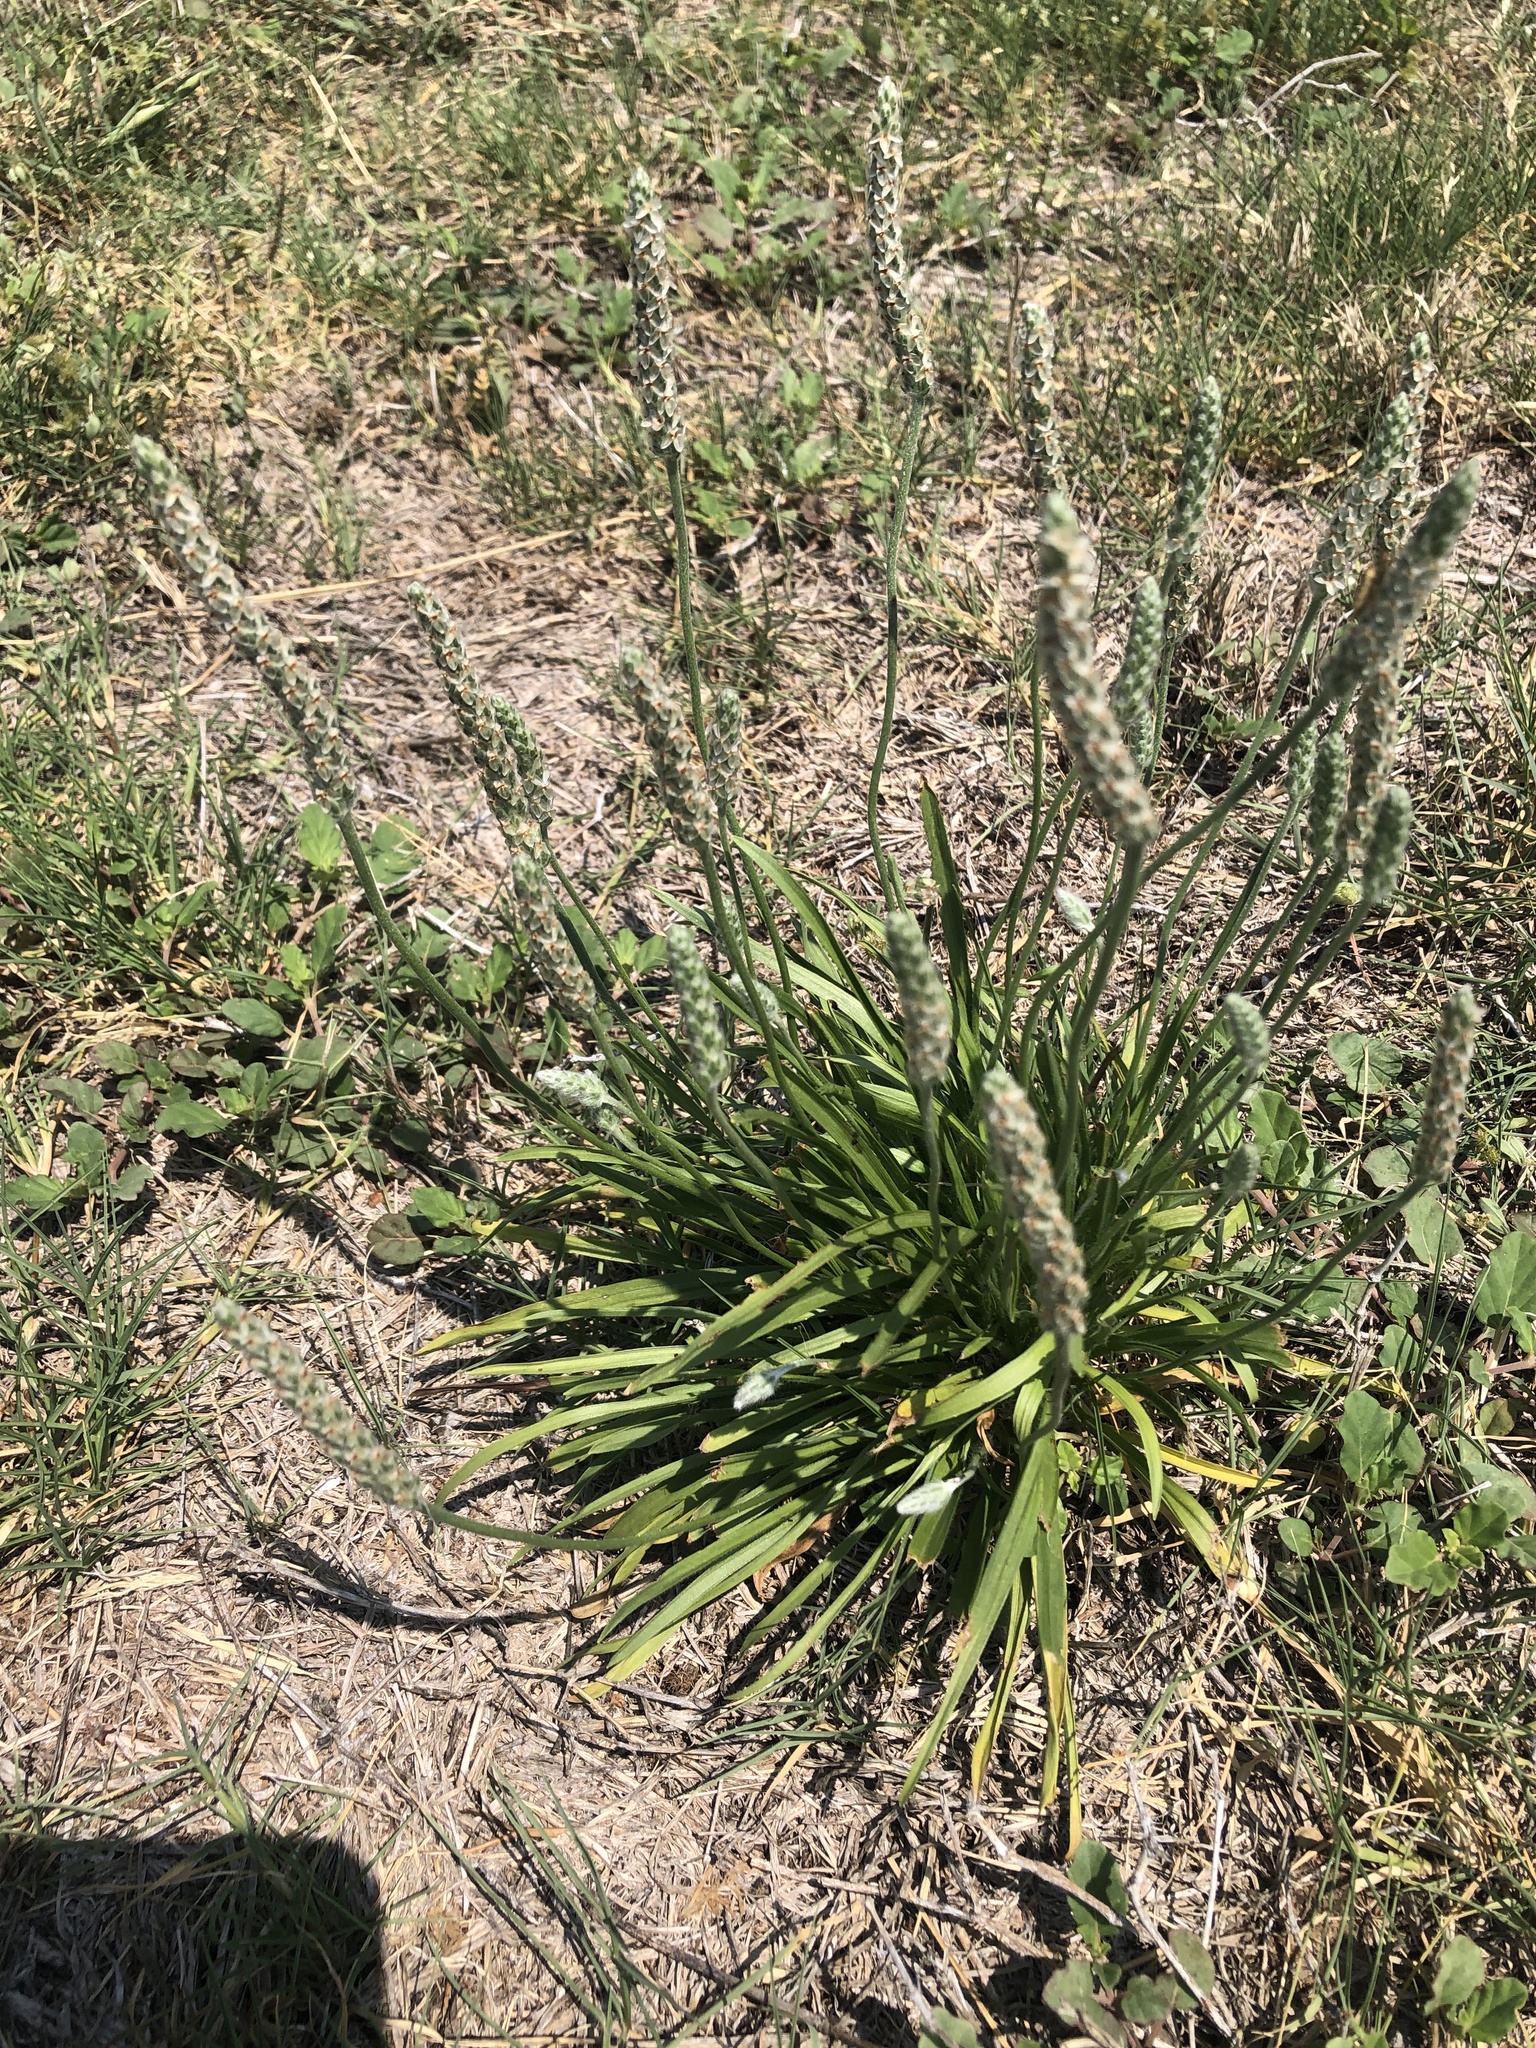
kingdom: Plantae
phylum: Tracheophyta
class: Magnoliopsida
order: Lamiales
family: Plantaginaceae
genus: Plantago
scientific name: Plantago wrightiana
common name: Wright's plantain
